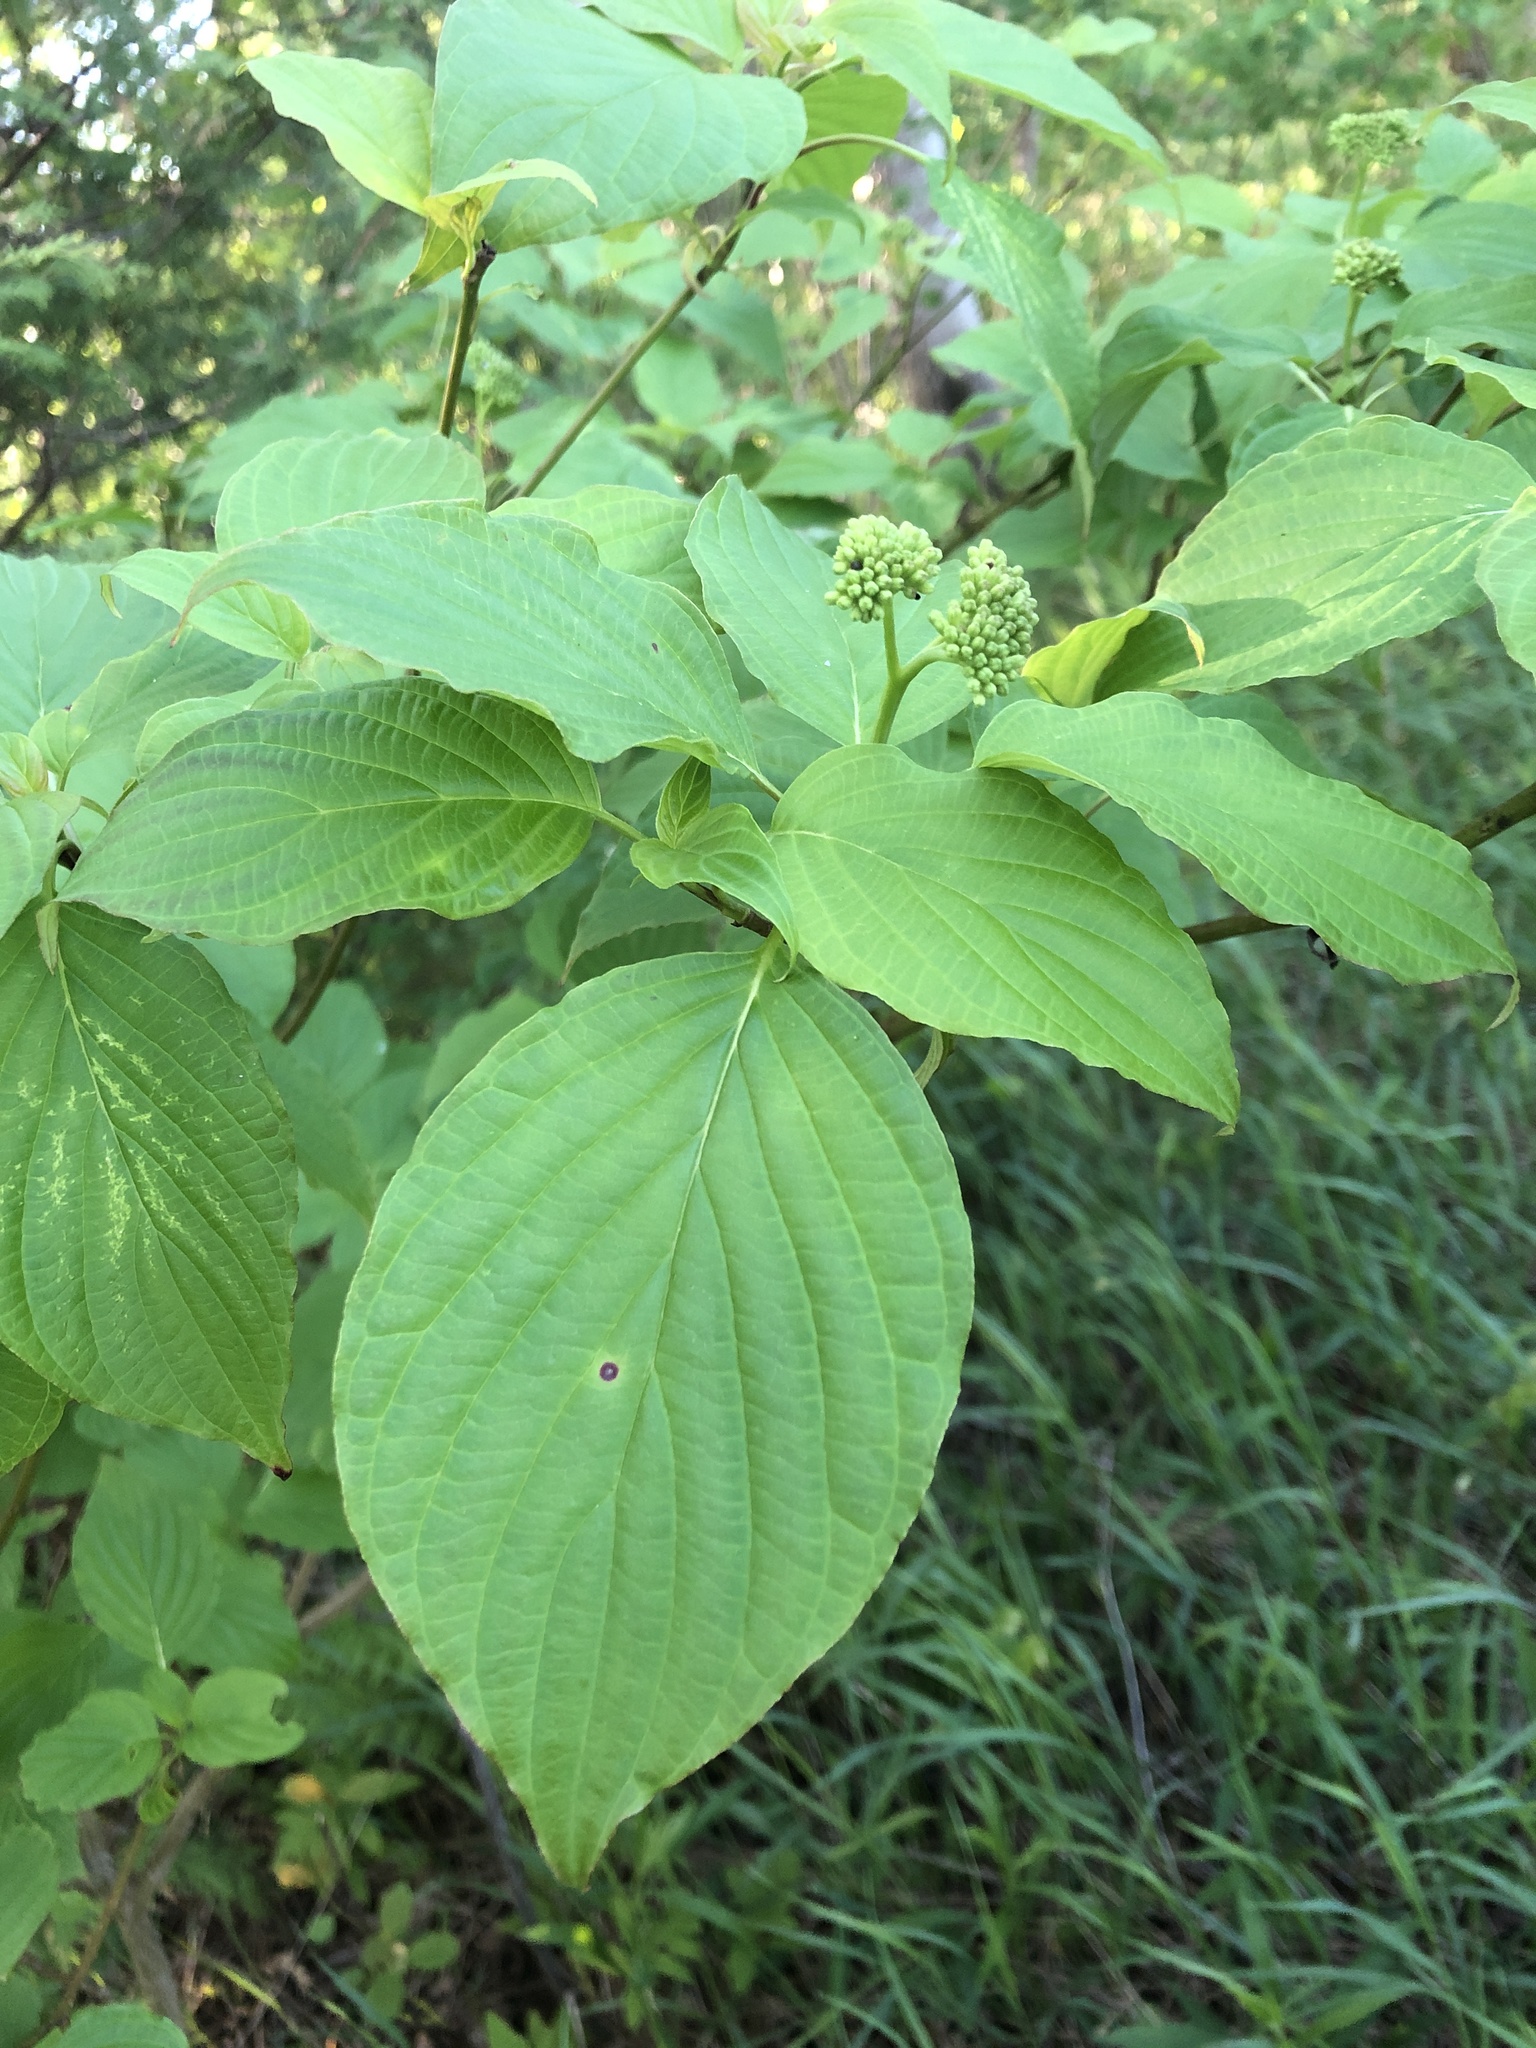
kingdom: Plantae
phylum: Tracheophyta
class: Magnoliopsida
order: Cornales
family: Cornaceae
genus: Cornus
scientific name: Cornus alternifolia
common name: Pagoda dogwood
